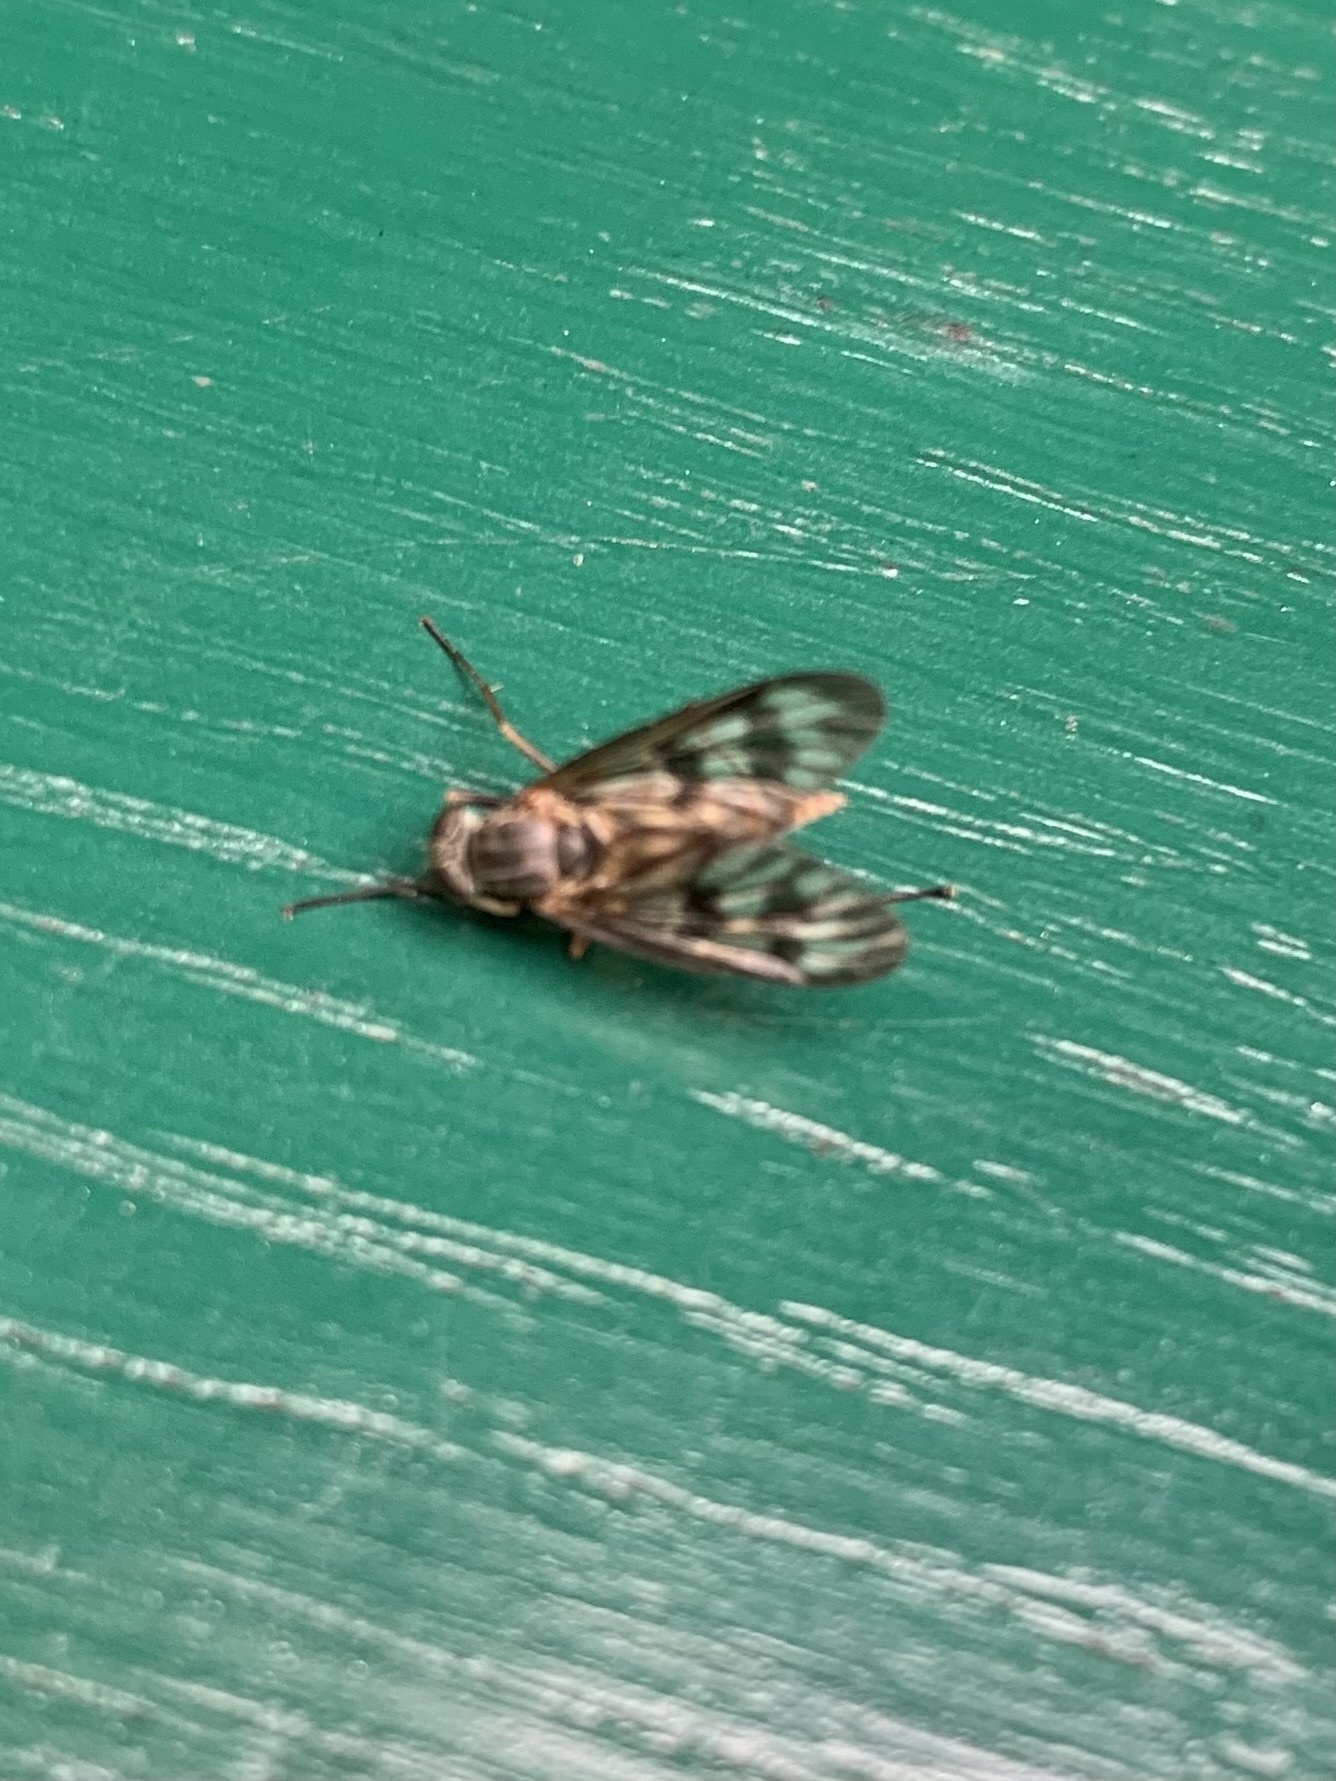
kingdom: Animalia
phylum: Arthropoda
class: Insecta
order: Diptera
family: Rhagionidae
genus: Rhagio
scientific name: Rhagio mystaceus
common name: Common snipe fly
